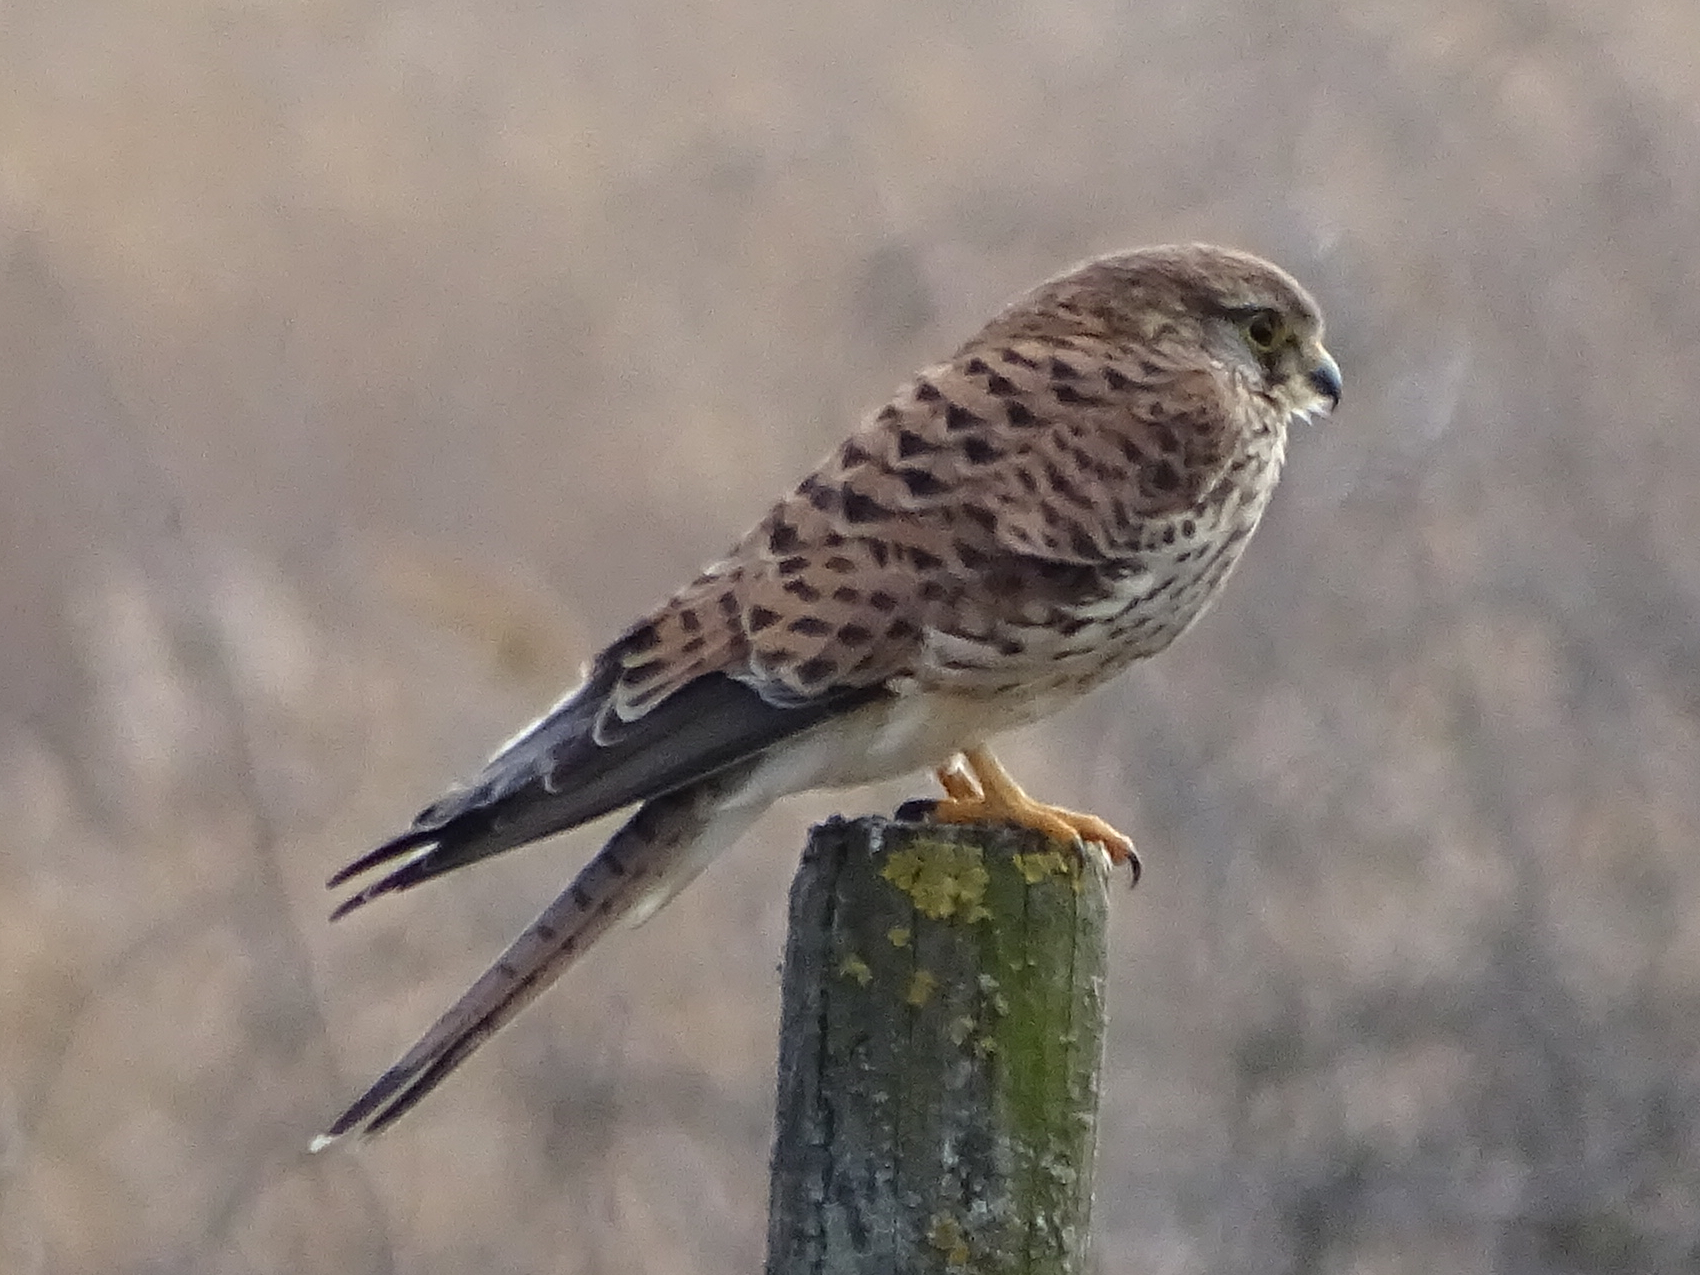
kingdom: Animalia
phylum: Chordata
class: Aves
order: Falconiformes
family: Falconidae
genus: Falco
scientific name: Falco tinnunculus
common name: Common kestrel
